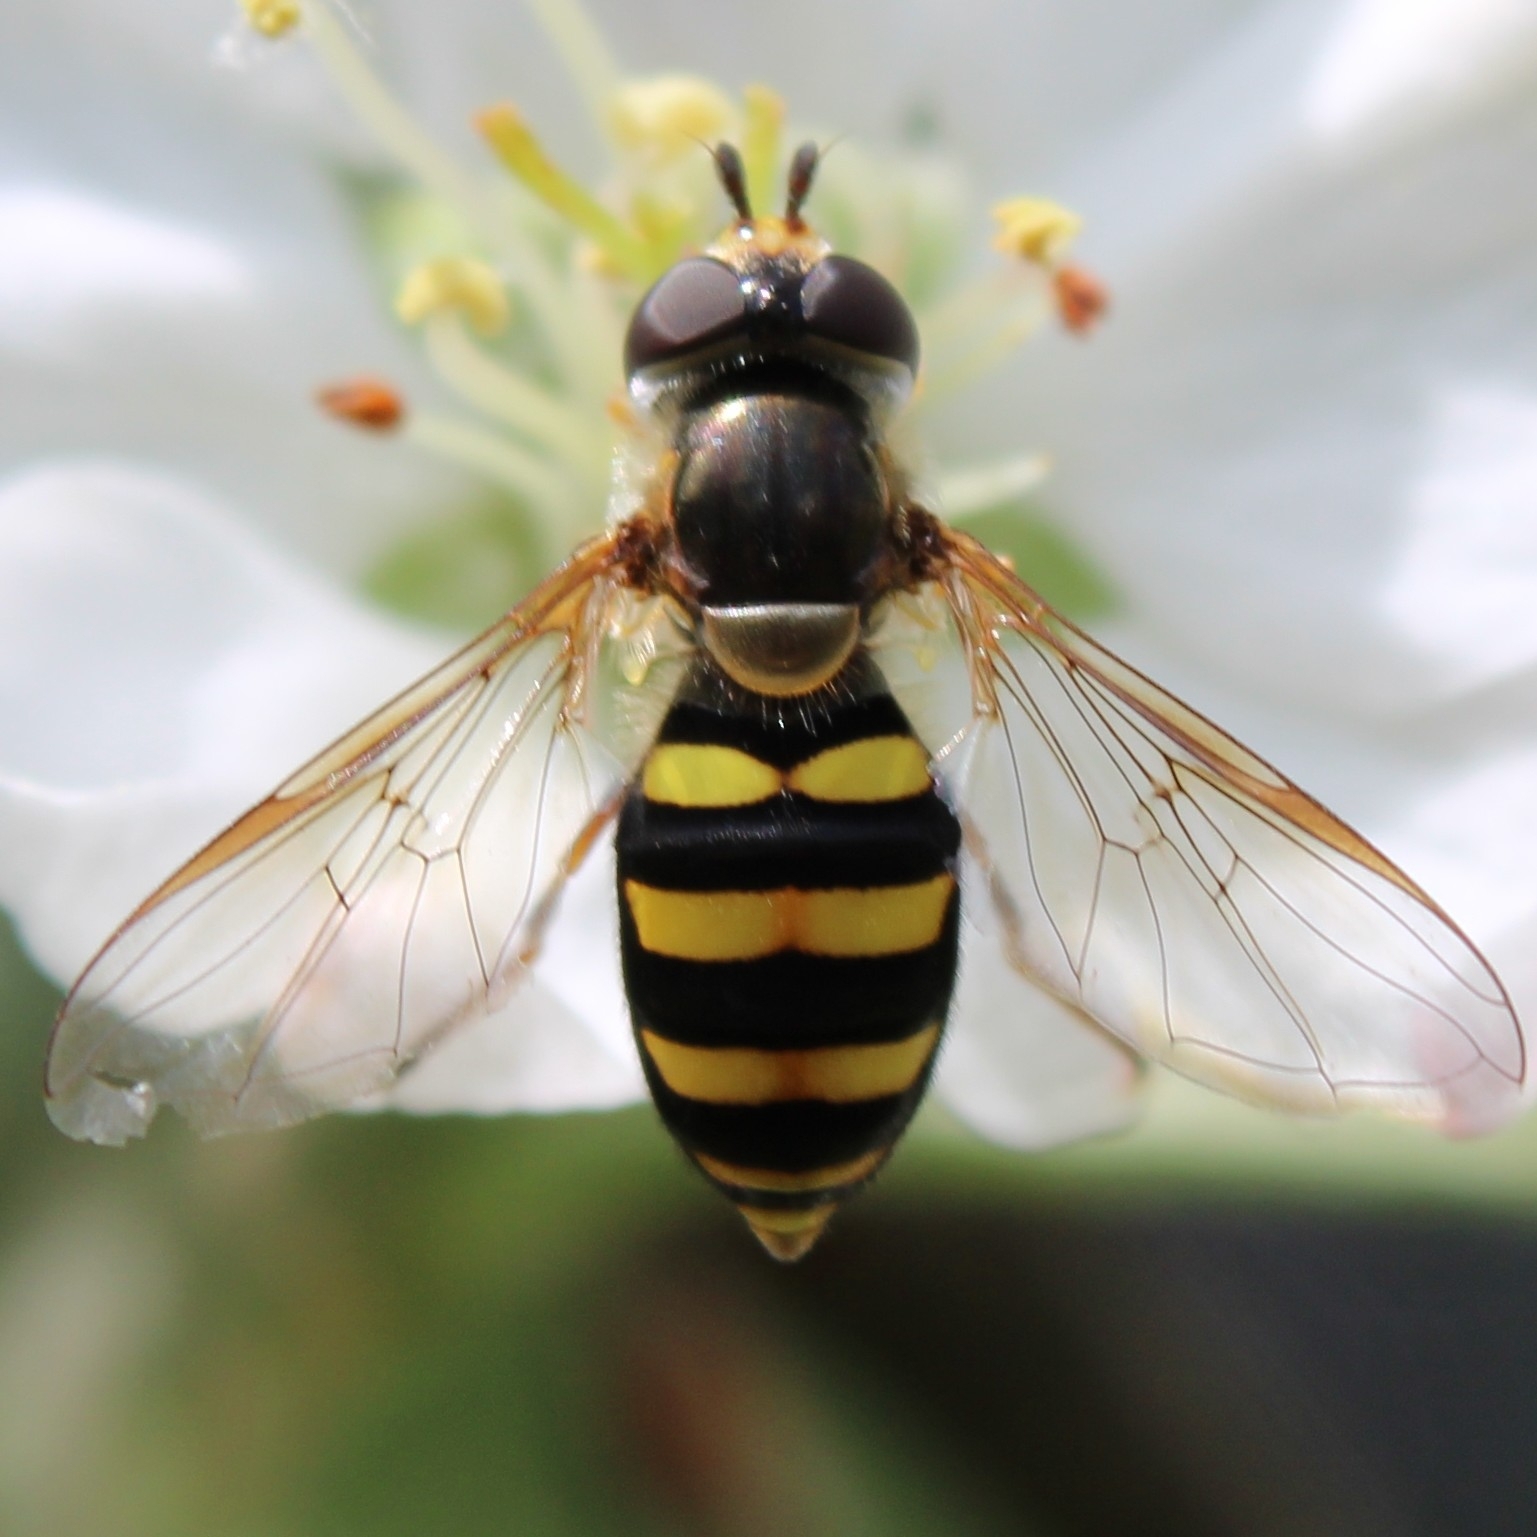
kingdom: Animalia
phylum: Arthropoda
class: Insecta
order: Diptera
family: Syrphidae
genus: Eupeodes
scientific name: Eupeodes
